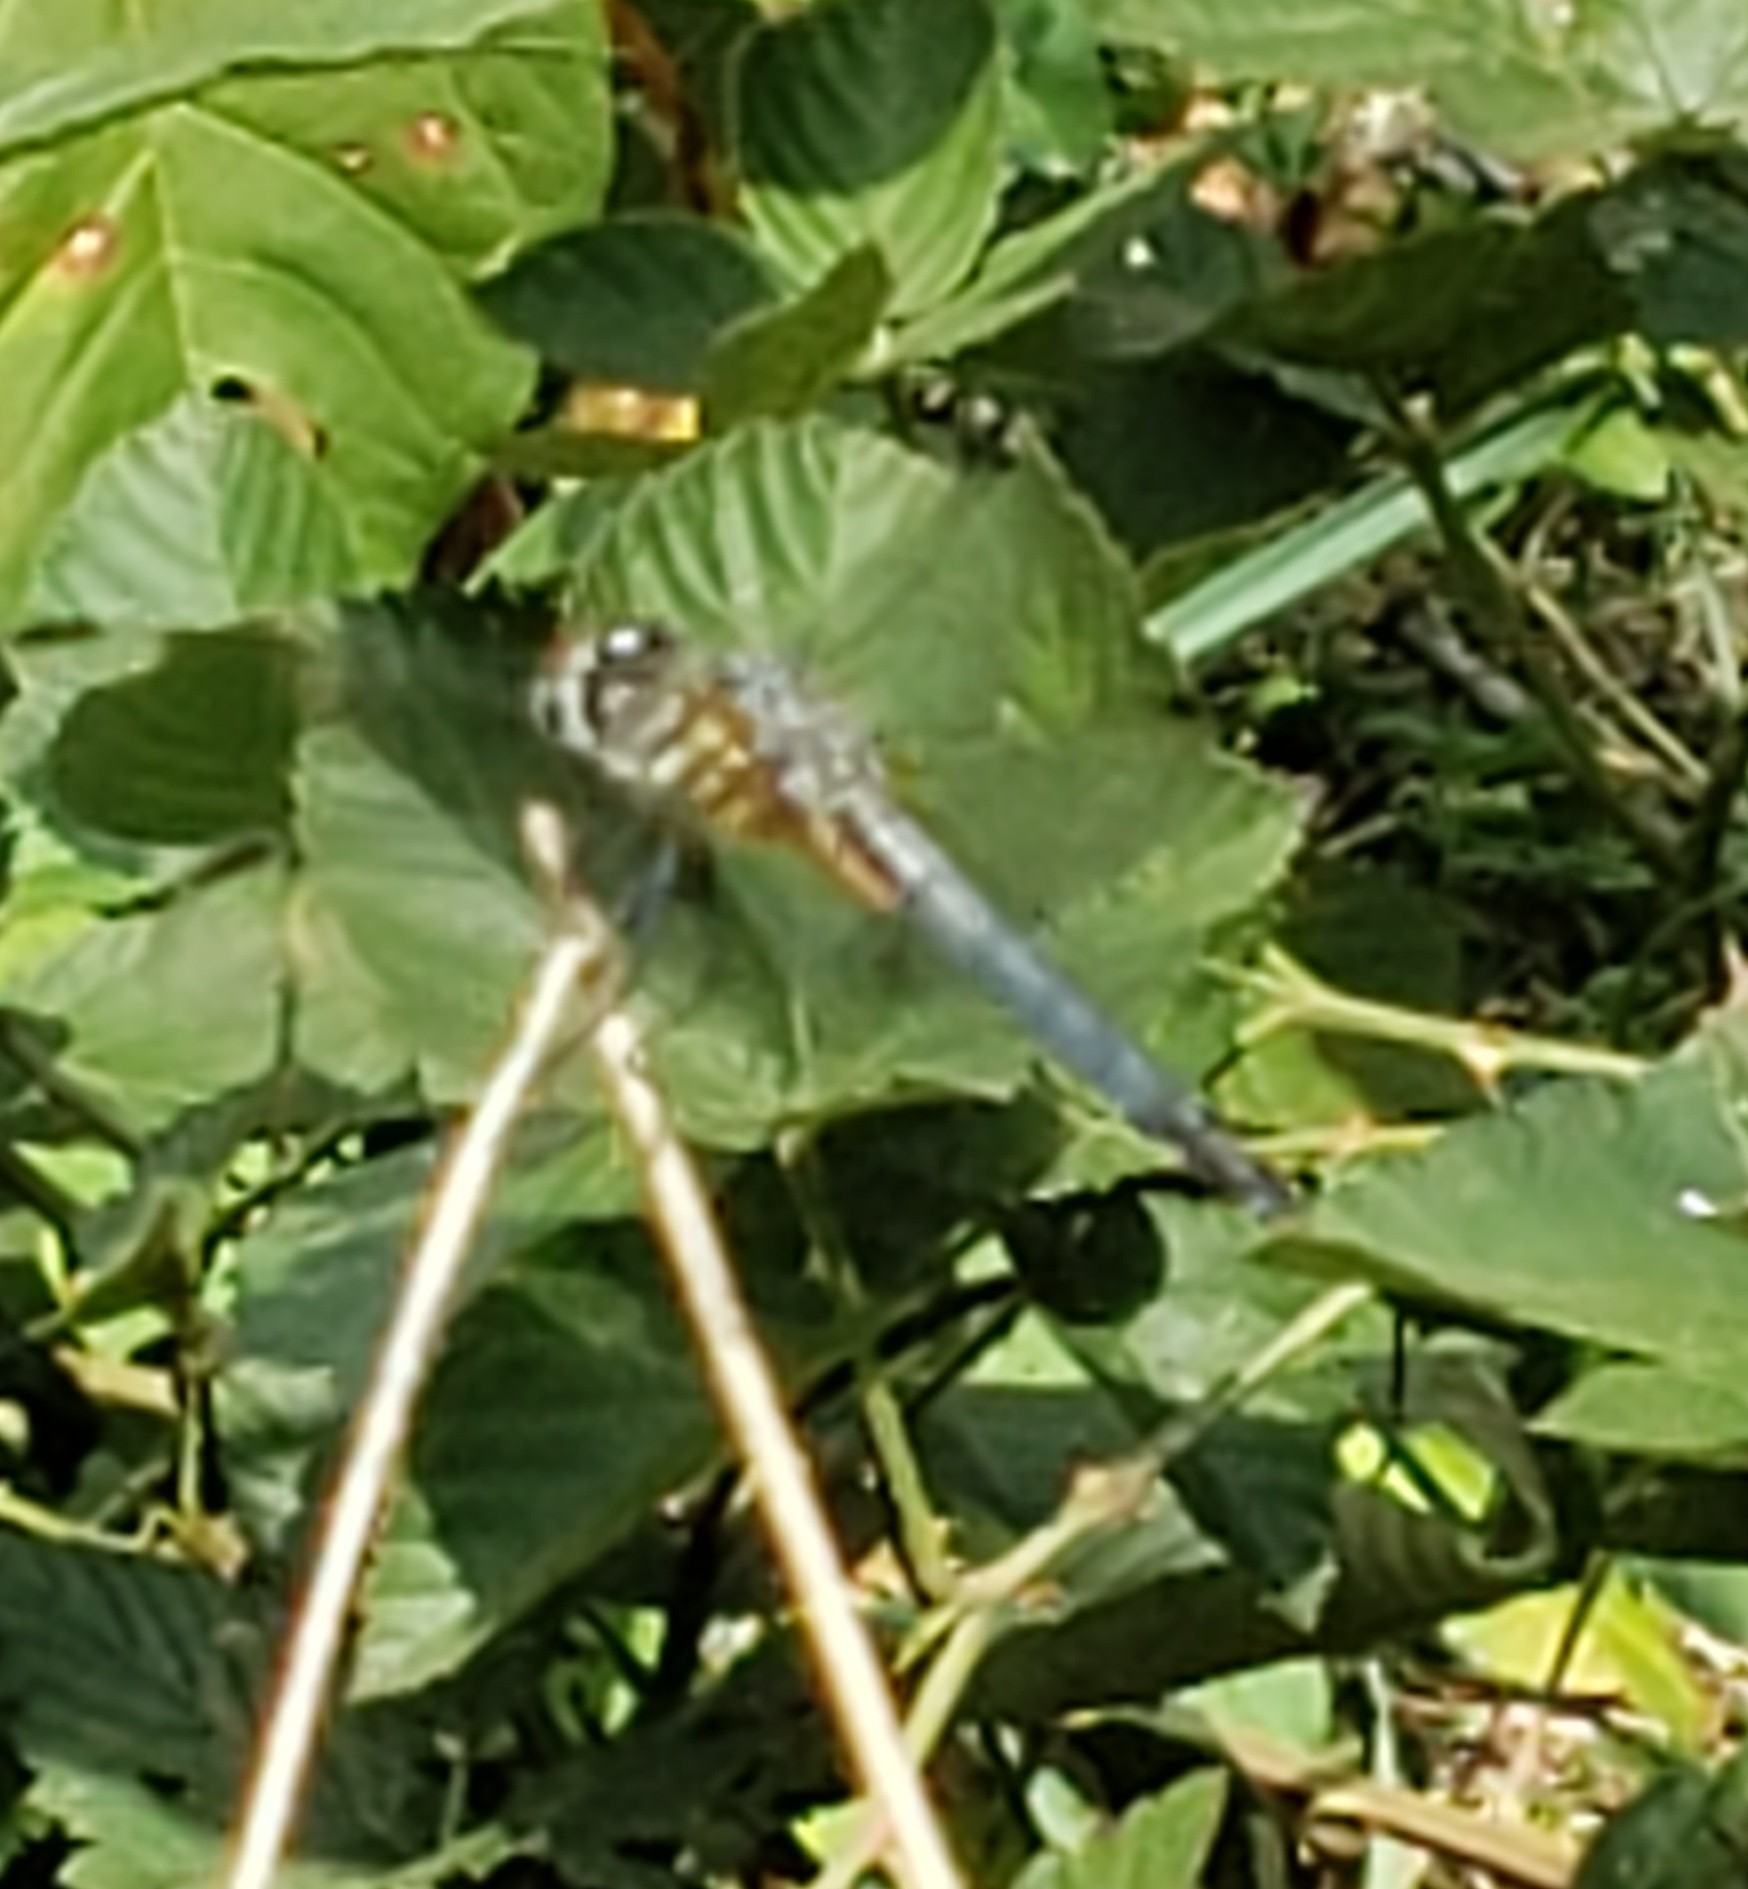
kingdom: Animalia
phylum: Arthropoda
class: Insecta
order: Odonata
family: Libellulidae
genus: Pachydiplax
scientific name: Pachydiplax longipennis
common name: Blue dasher
